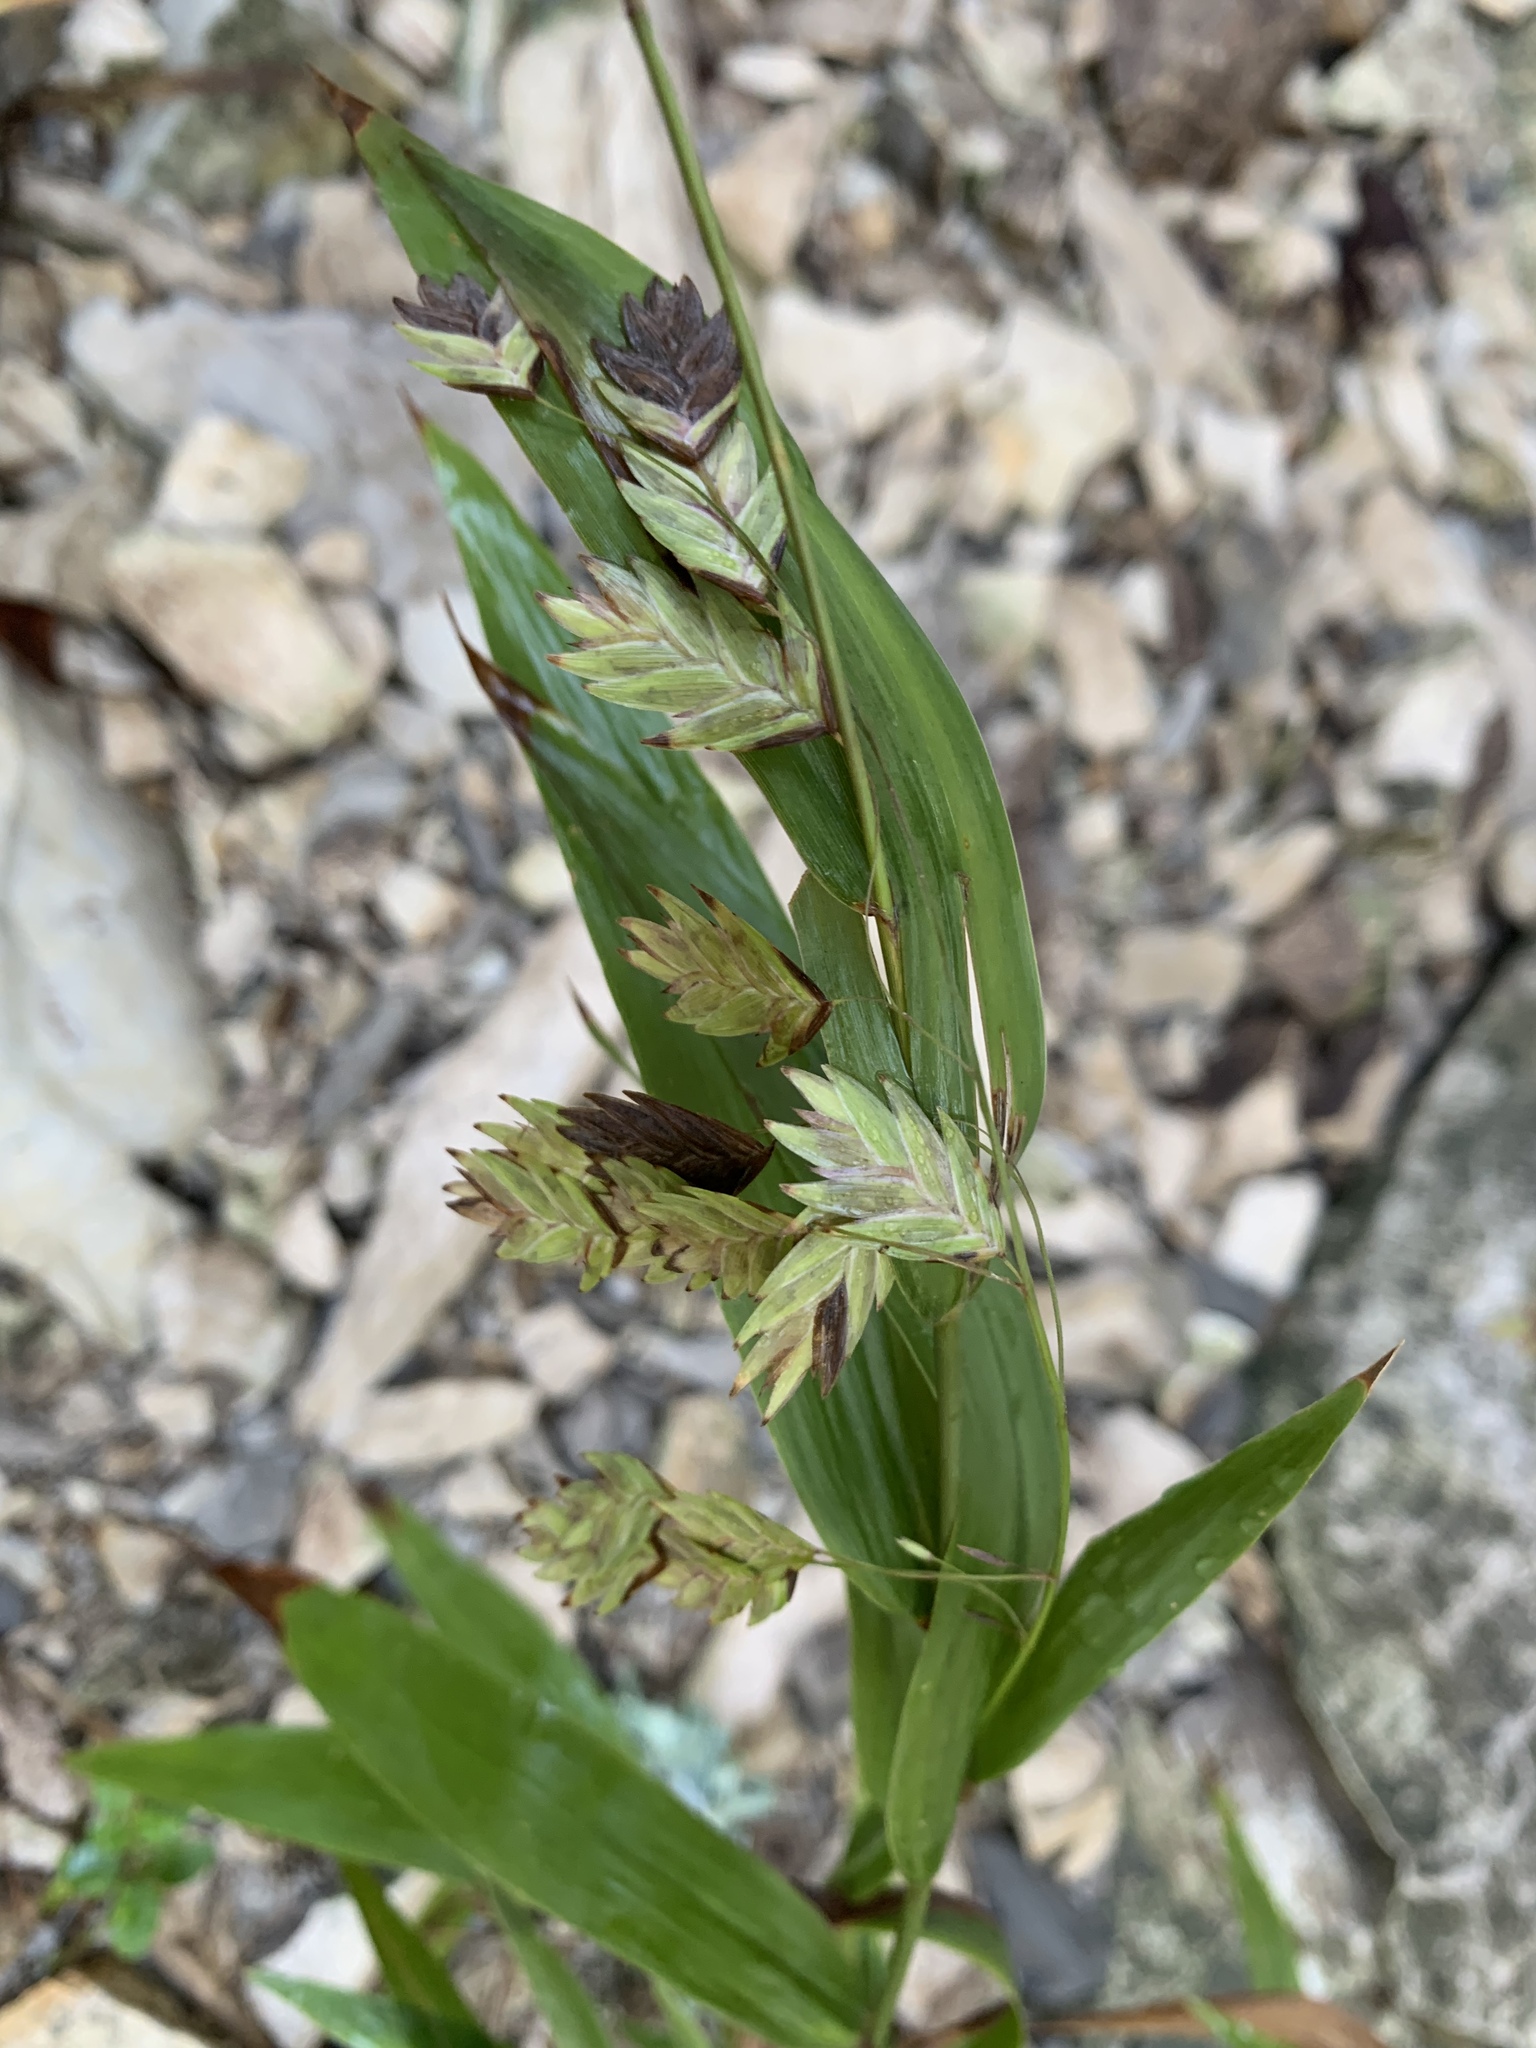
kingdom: Plantae
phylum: Tracheophyta
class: Liliopsida
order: Poales
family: Poaceae
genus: Chasmanthium
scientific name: Chasmanthium latifolium
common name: Broad-leaved chasmanthium
